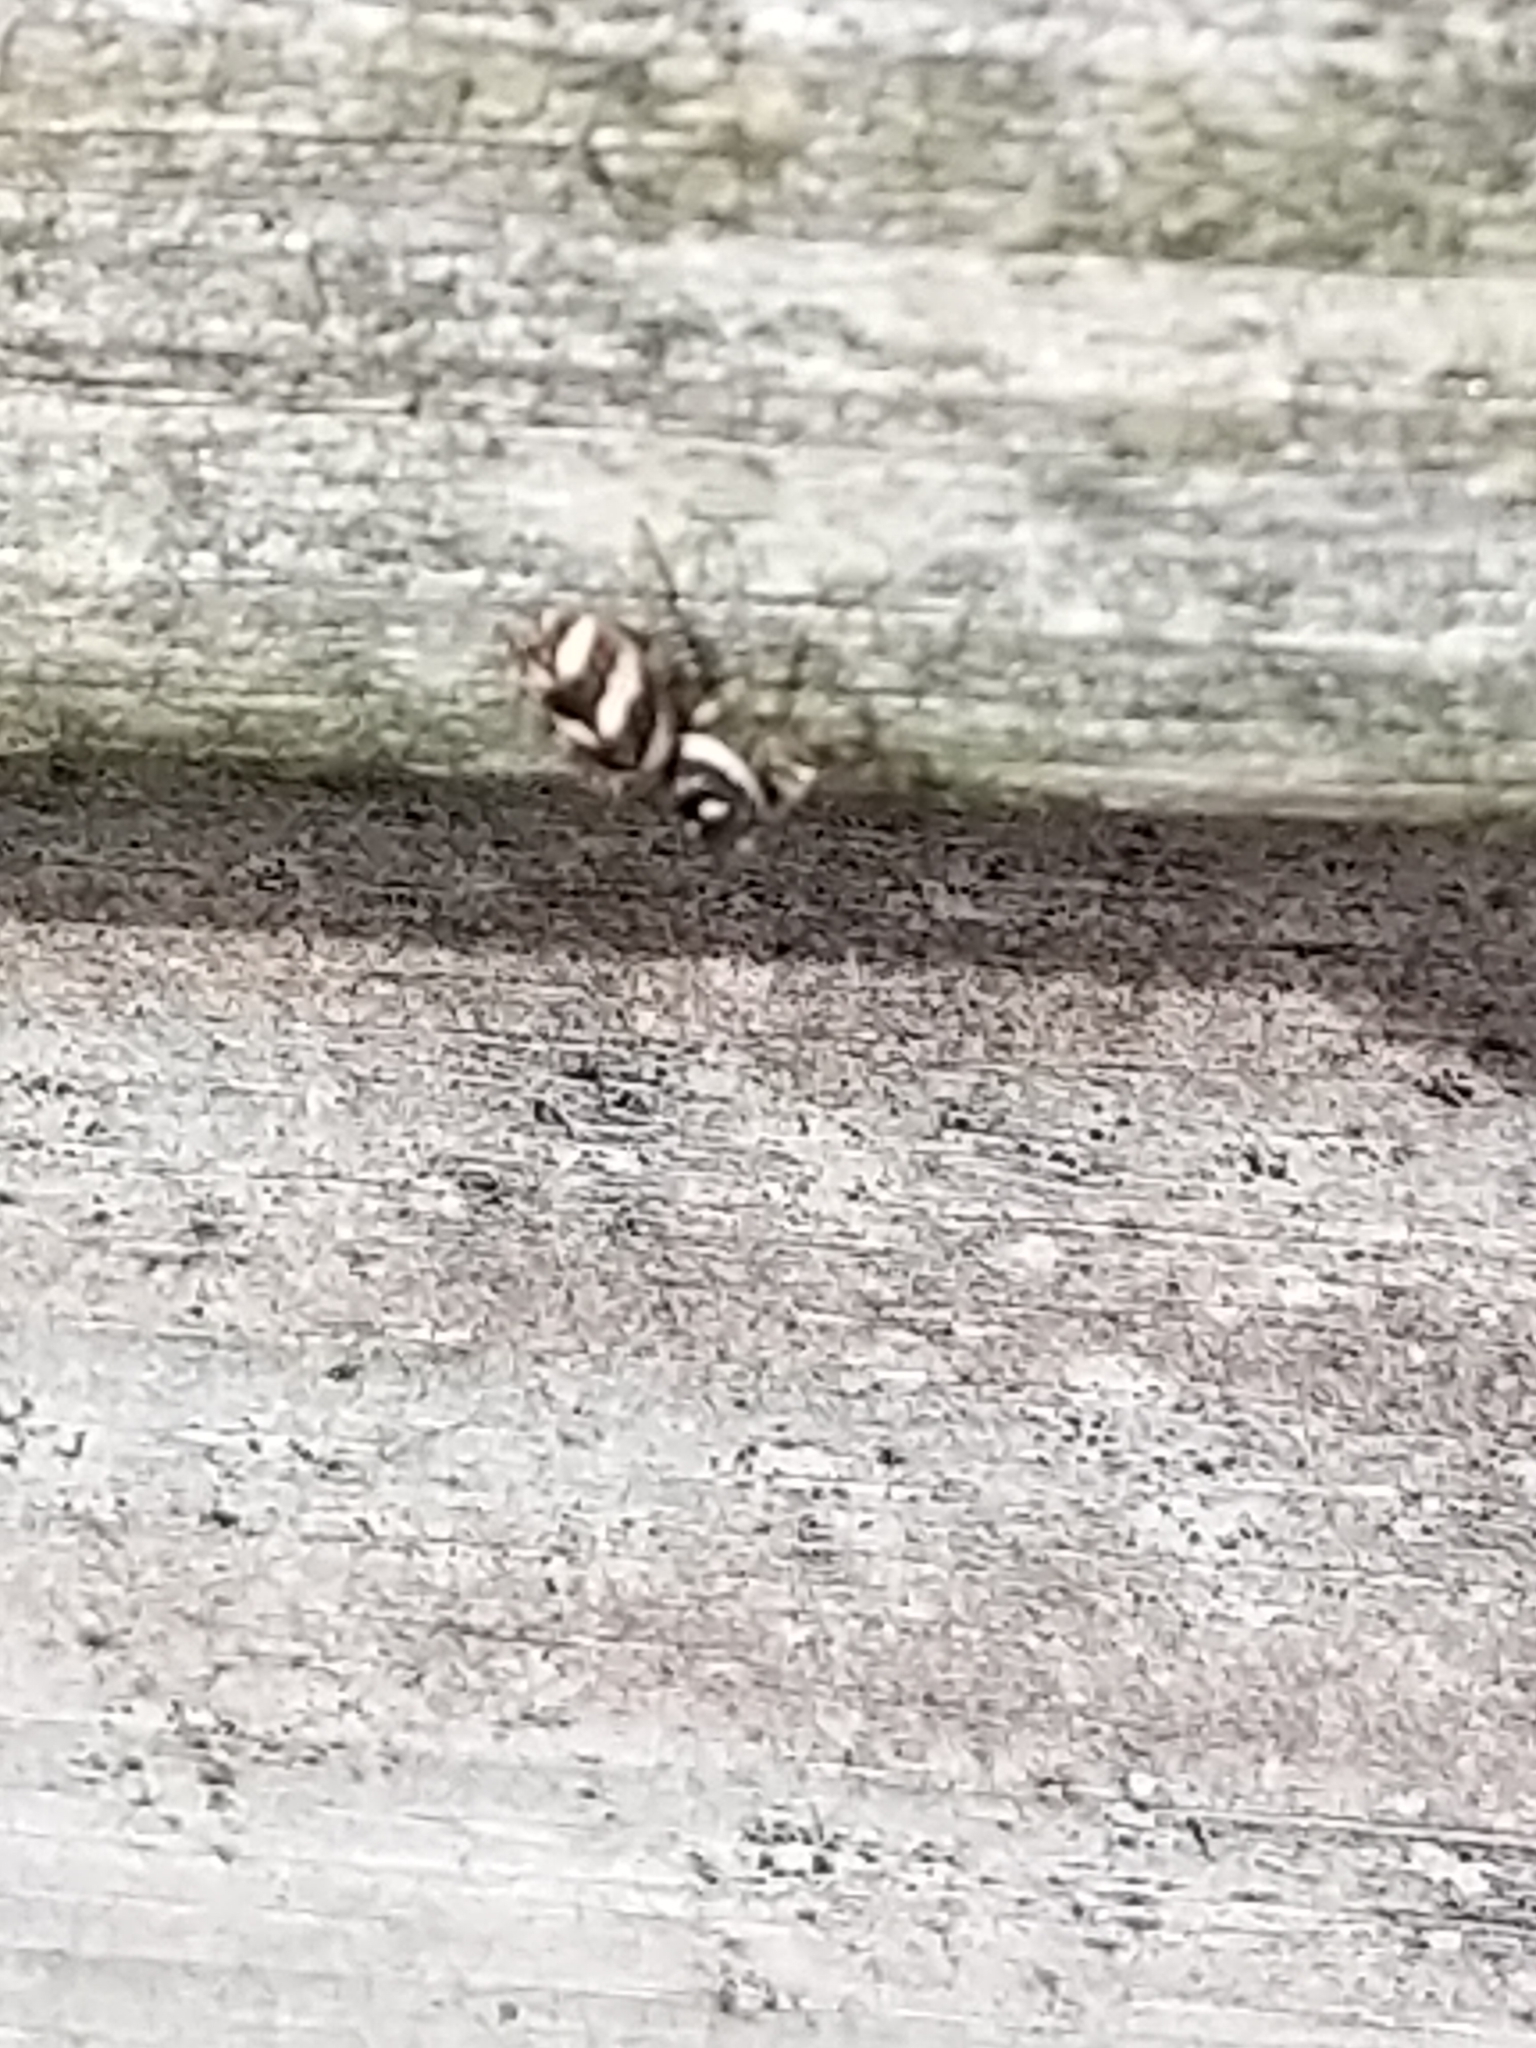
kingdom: Animalia
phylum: Arthropoda
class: Arachnida
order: Araneae
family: Salticidae
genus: Salticus
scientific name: Salticus scenicus
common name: Zebra jumper
